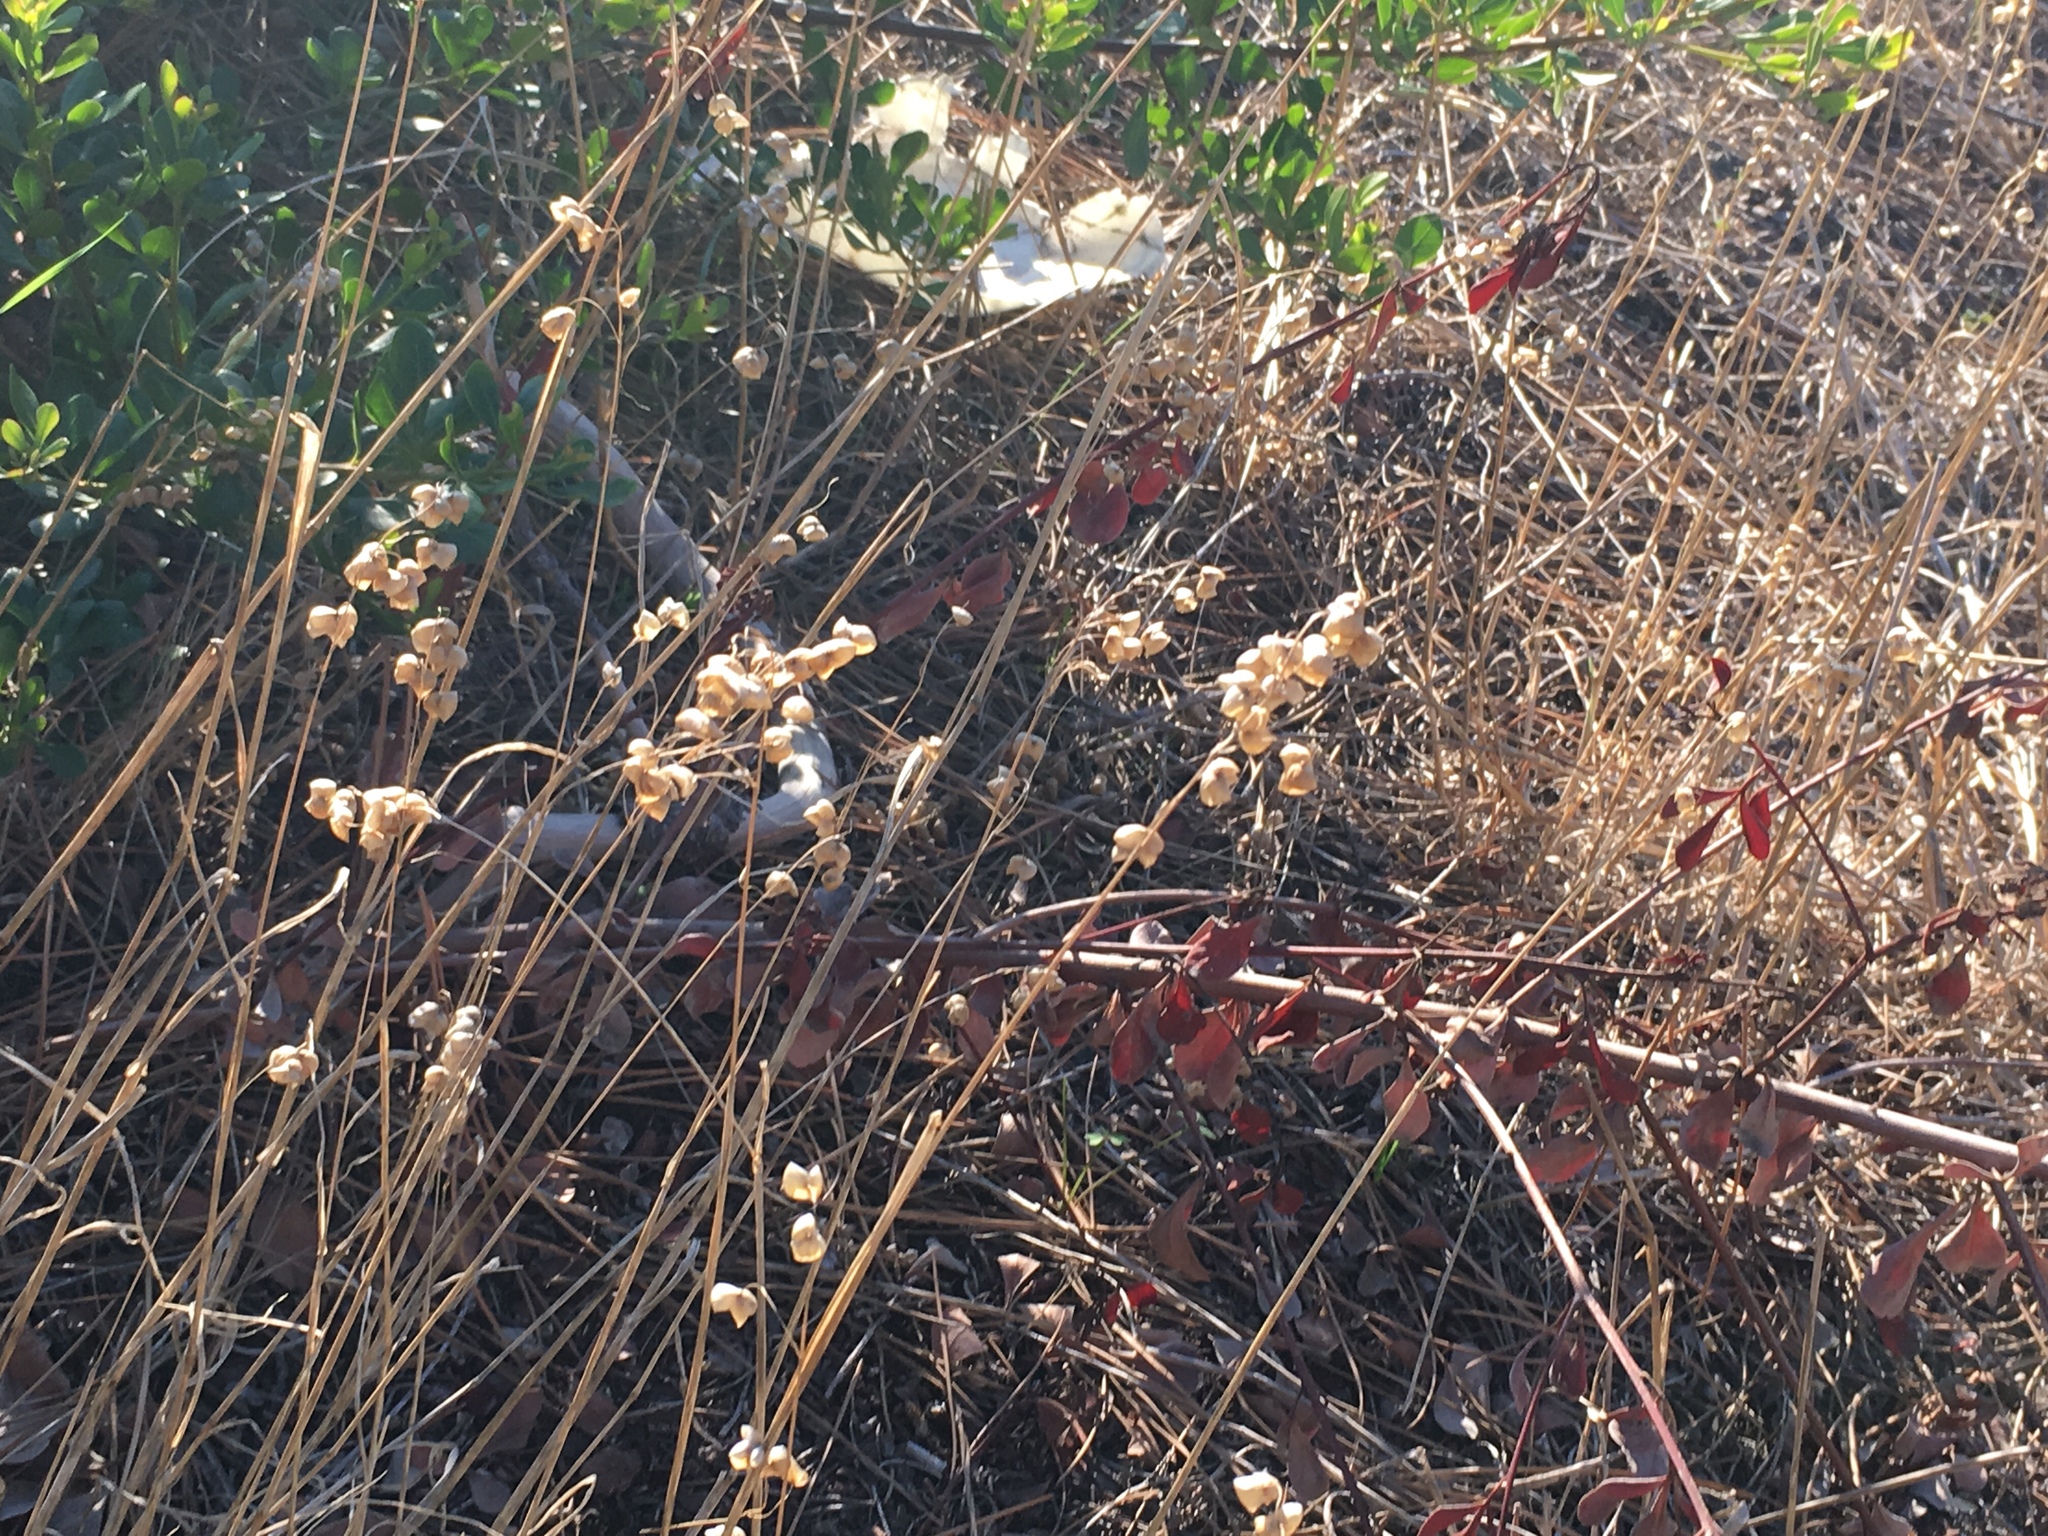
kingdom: Plantae
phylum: Tracheophyta
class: Liliopsida
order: Poales
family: Poaceae
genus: Briza
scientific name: Briza maxima
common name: Big quakinggrass
